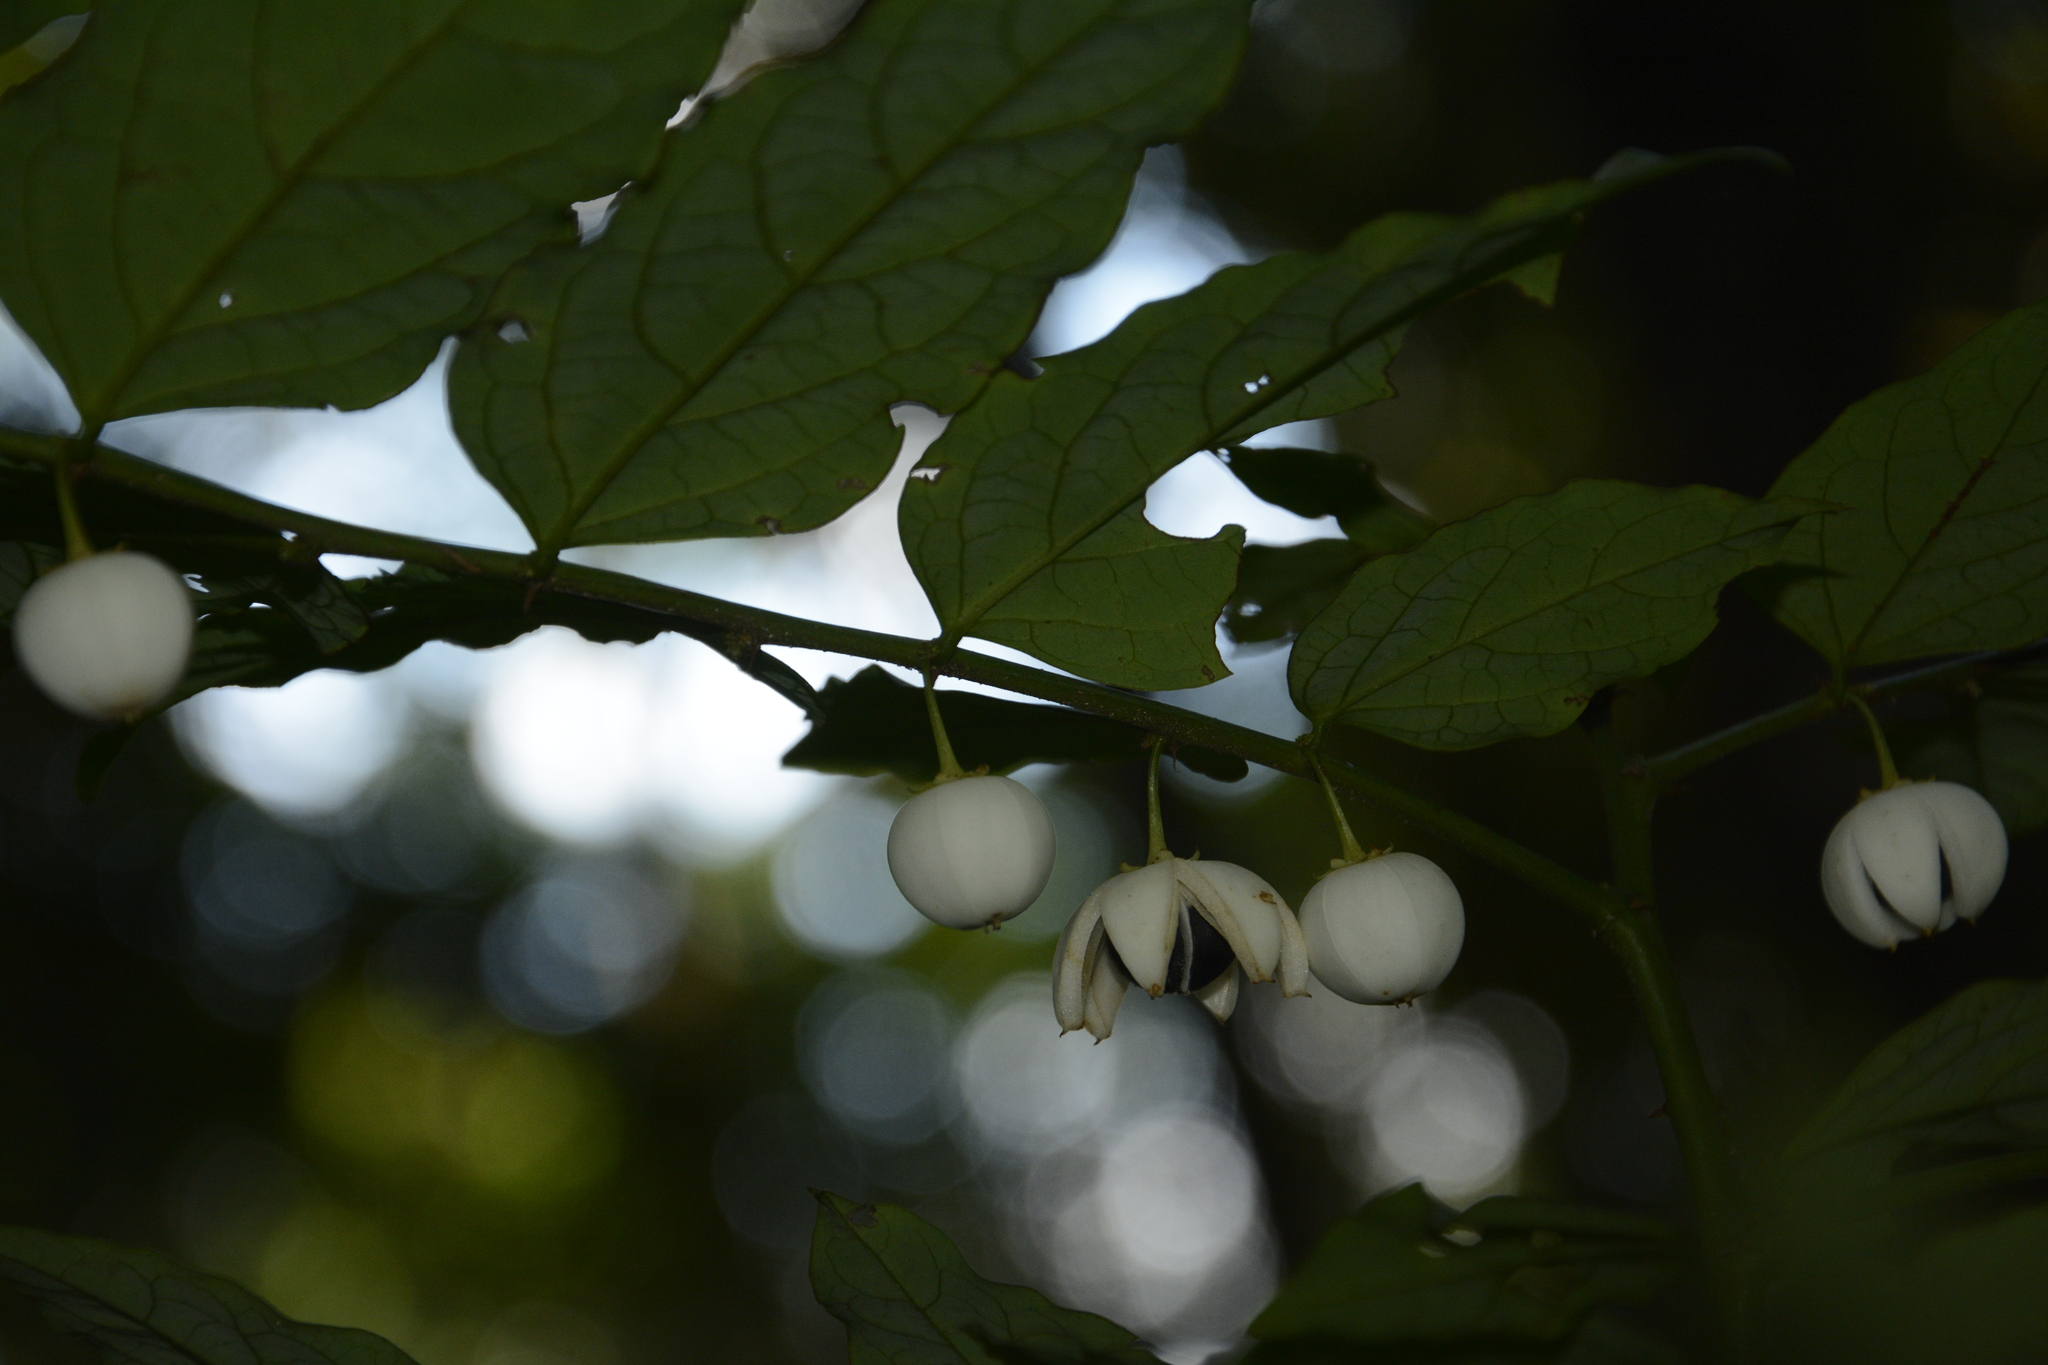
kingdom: Plantae
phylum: Tracheophyta
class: Magnoliopsida
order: Malpighiales
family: Phyllanthaceae
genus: Breynia
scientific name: Breynia androgyna
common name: Star gooseberry
